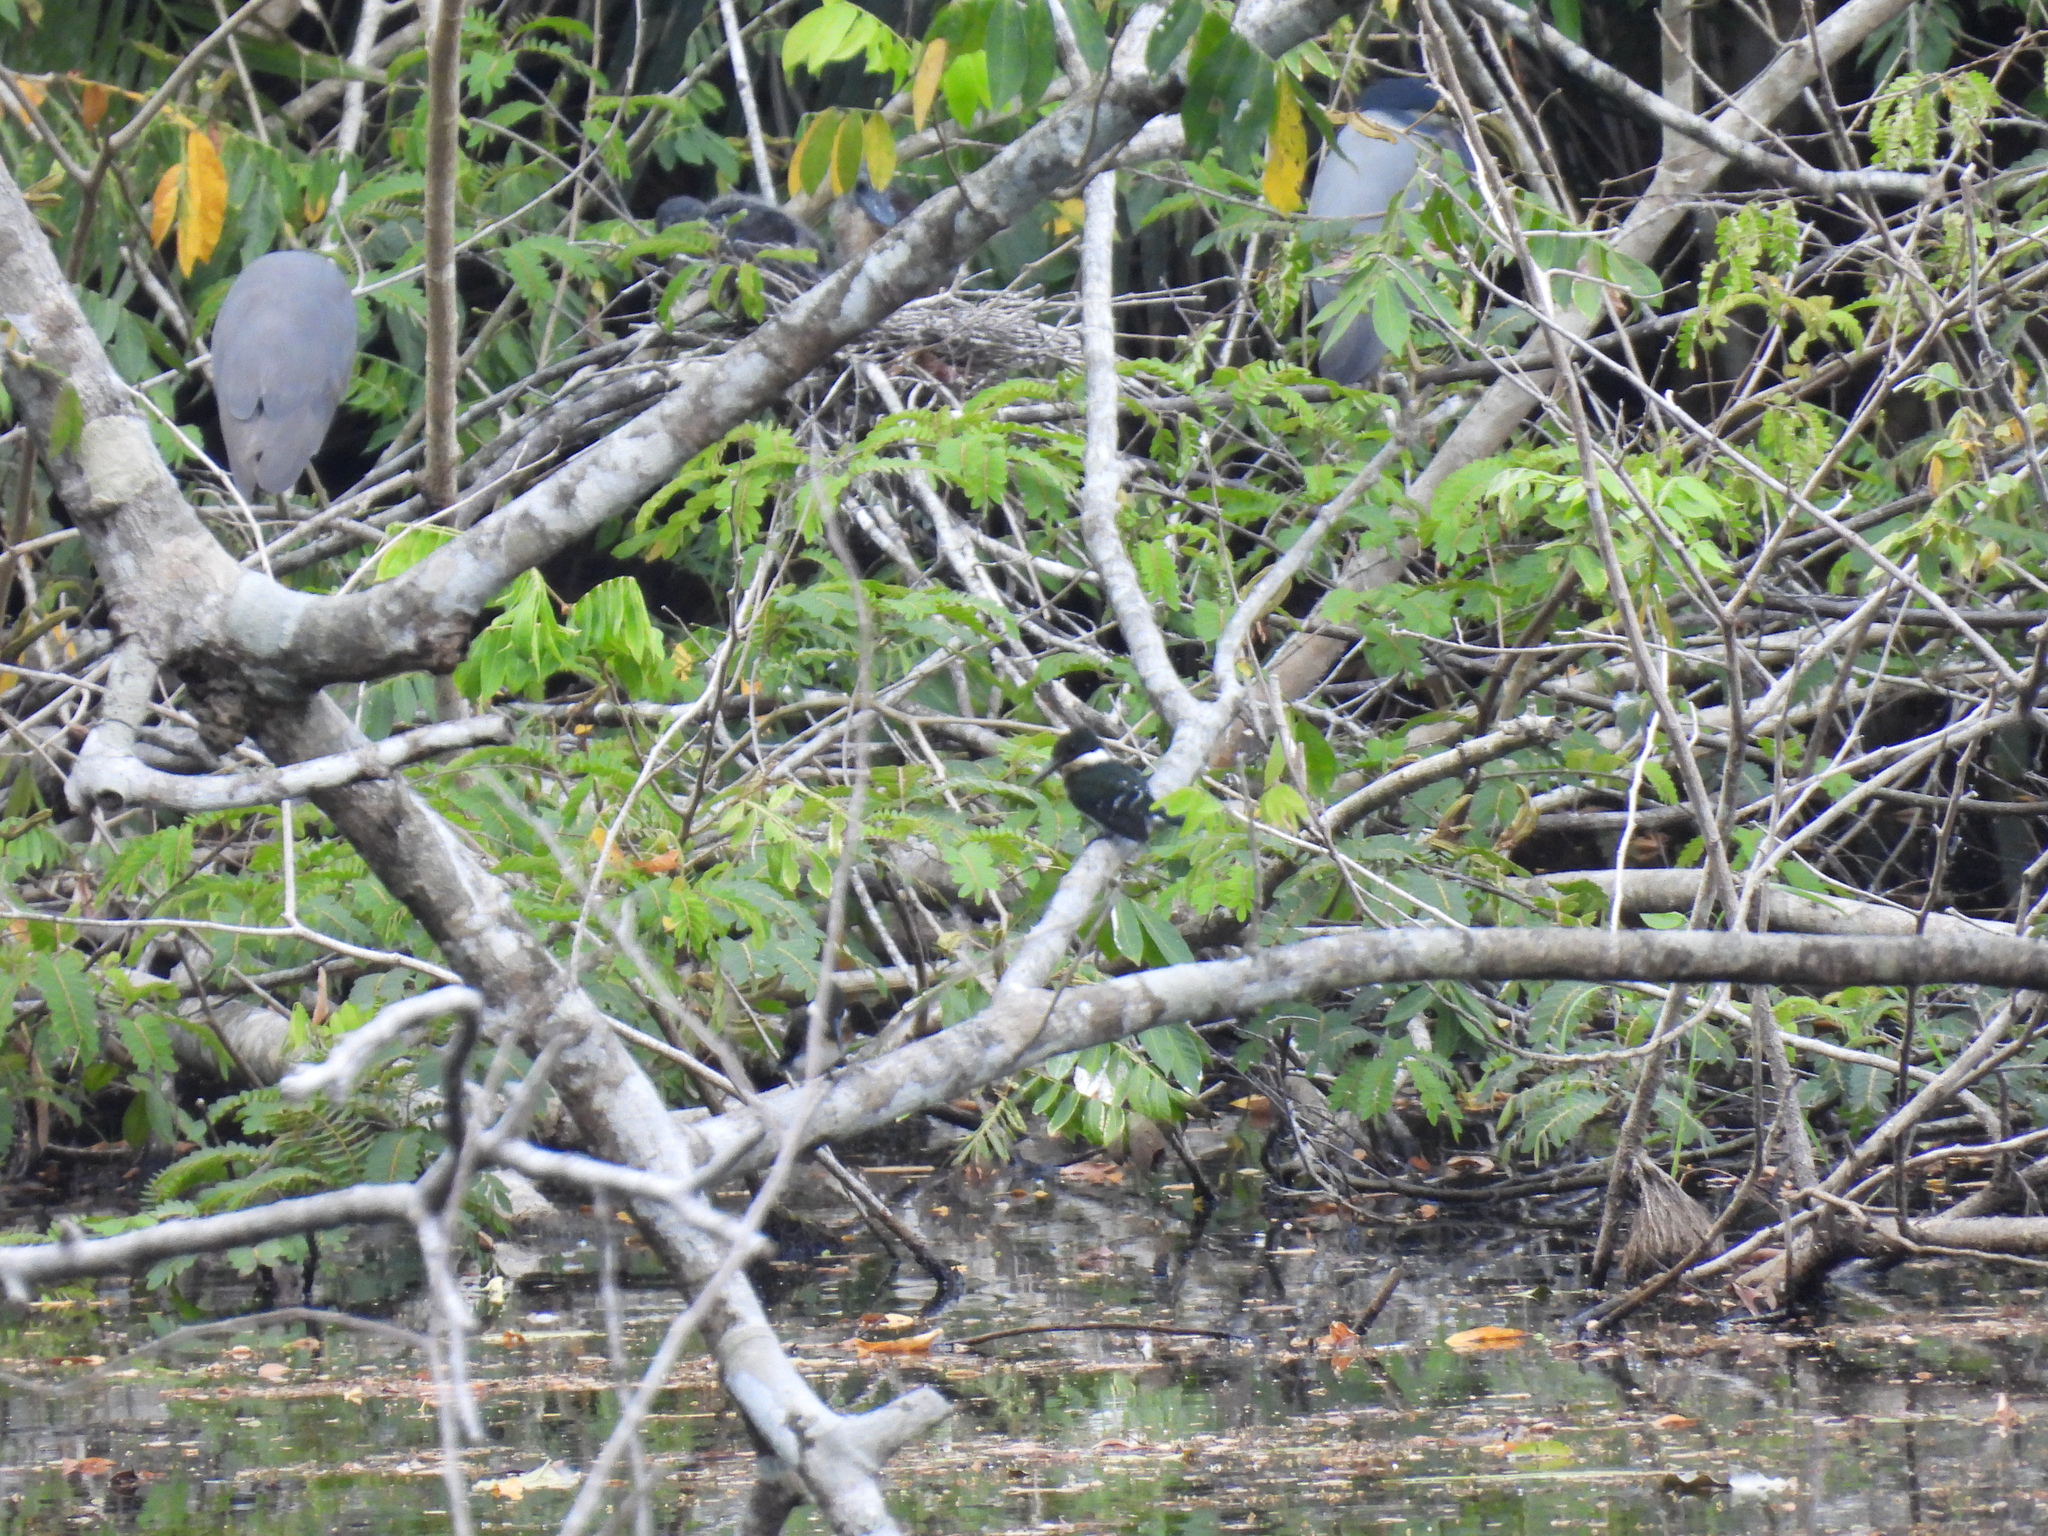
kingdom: Animalia
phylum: Chordata
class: Aves
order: Coraciiformes
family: Alcedinidae
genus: Chloroceryle
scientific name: Chloroceryle americana
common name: Green kingfisher
